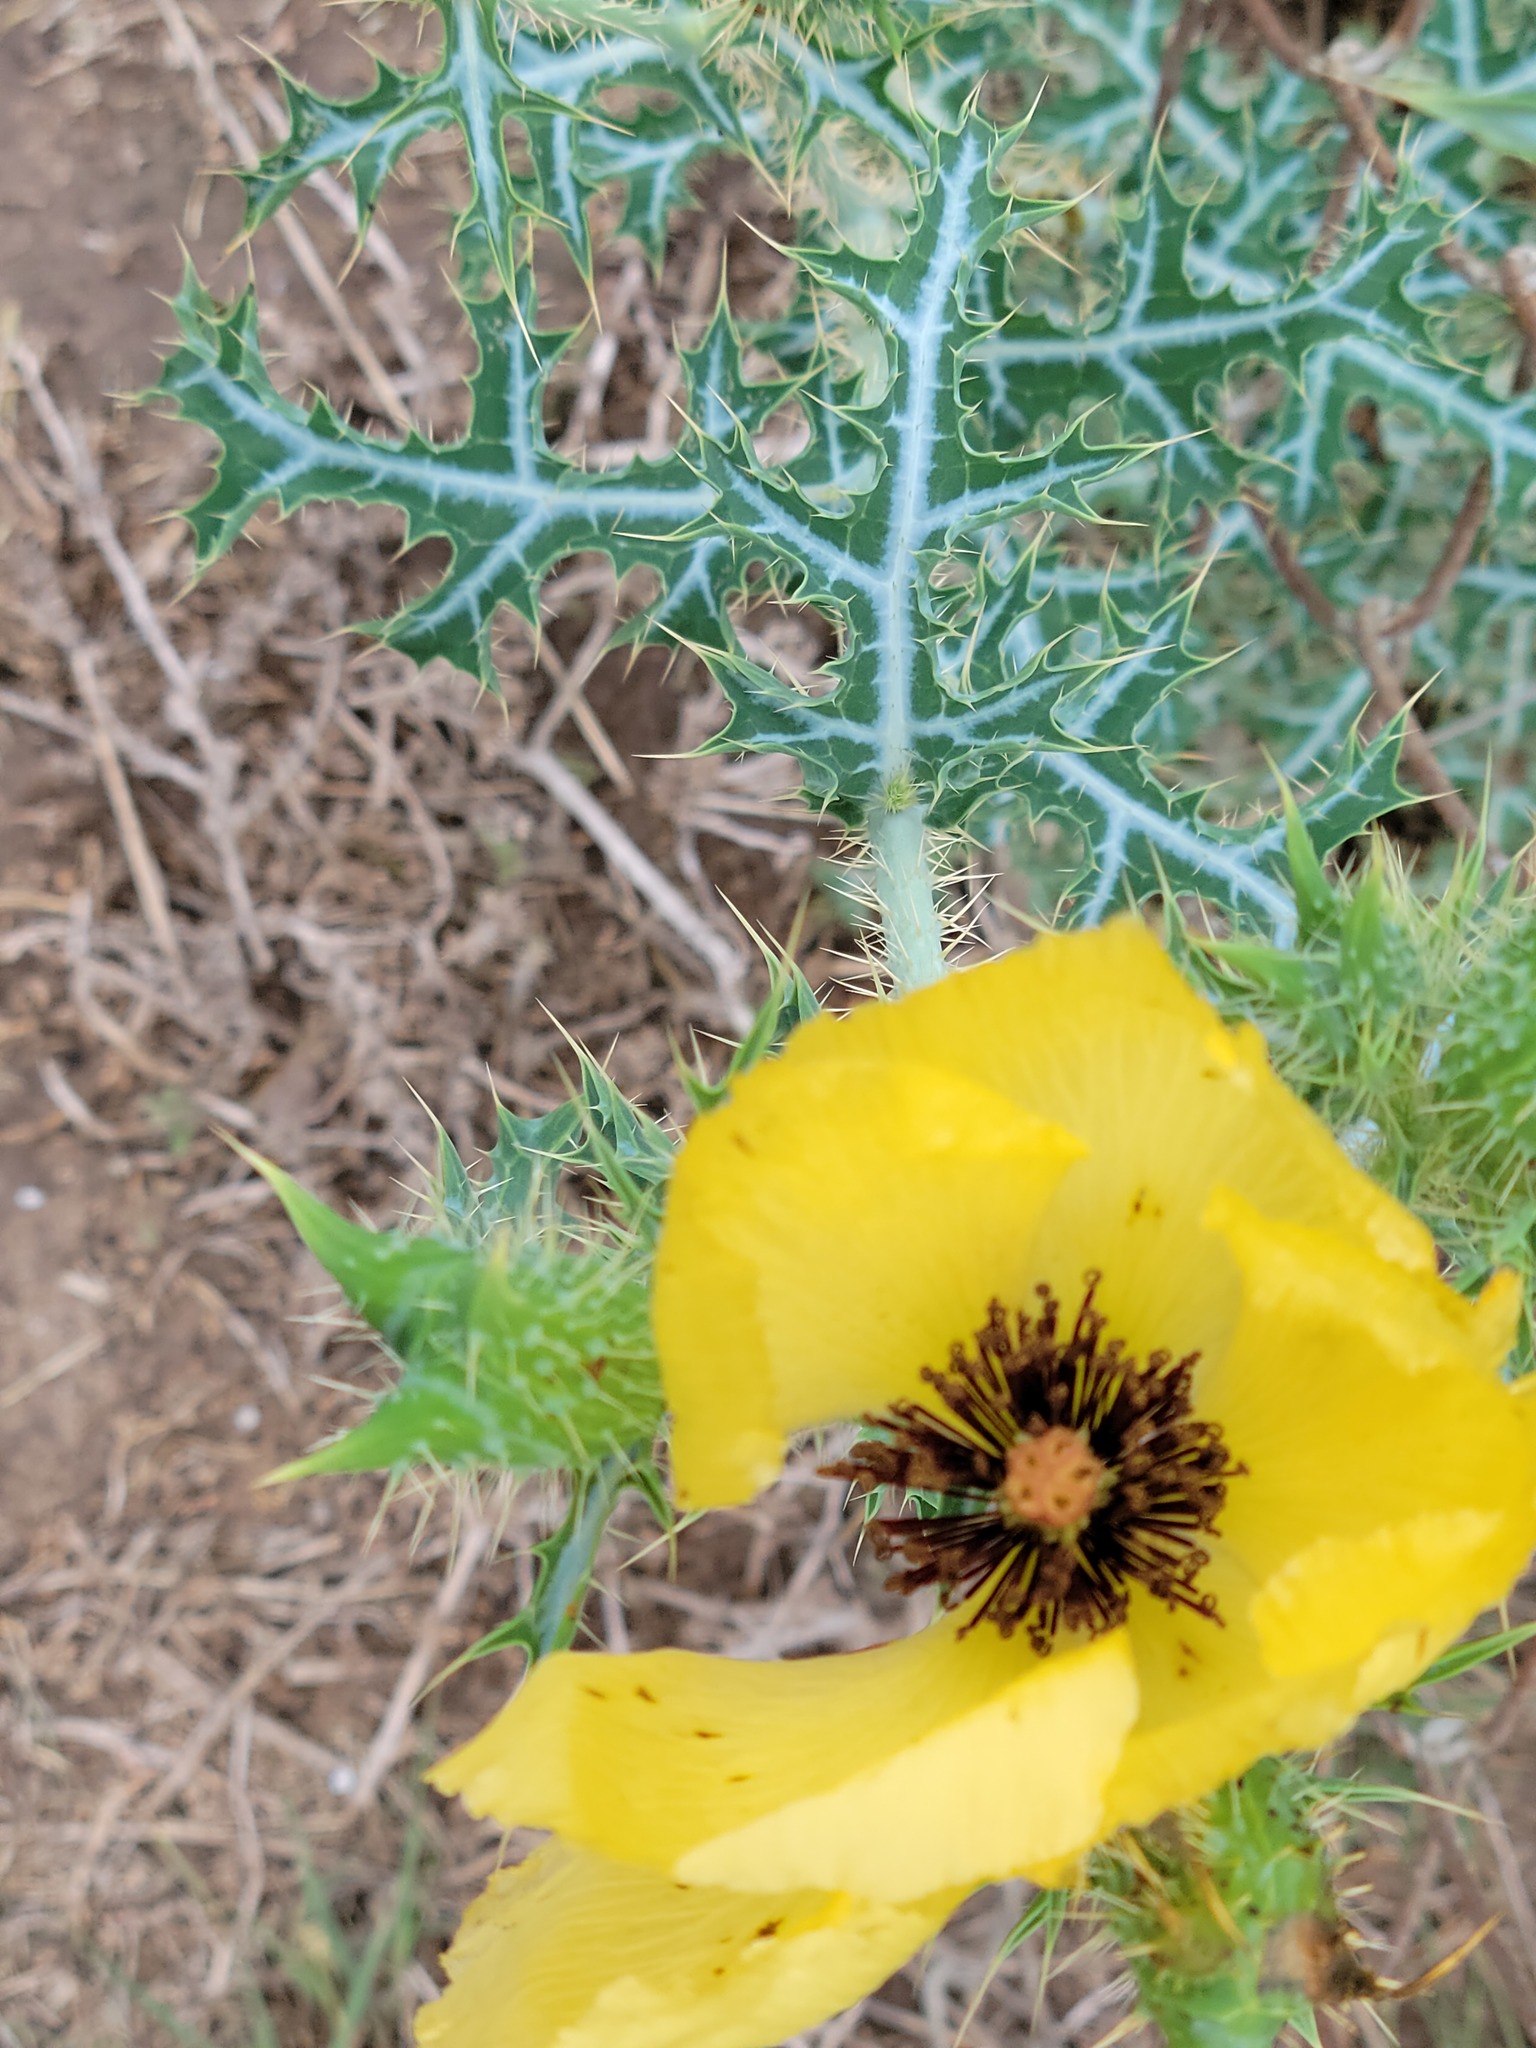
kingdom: Plantae
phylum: Tracheophyta
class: Magnoliopsida
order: Ranunculales
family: Papaveraceae
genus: Argemone
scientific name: Argemone aenea
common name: Golden prickly-poppy
